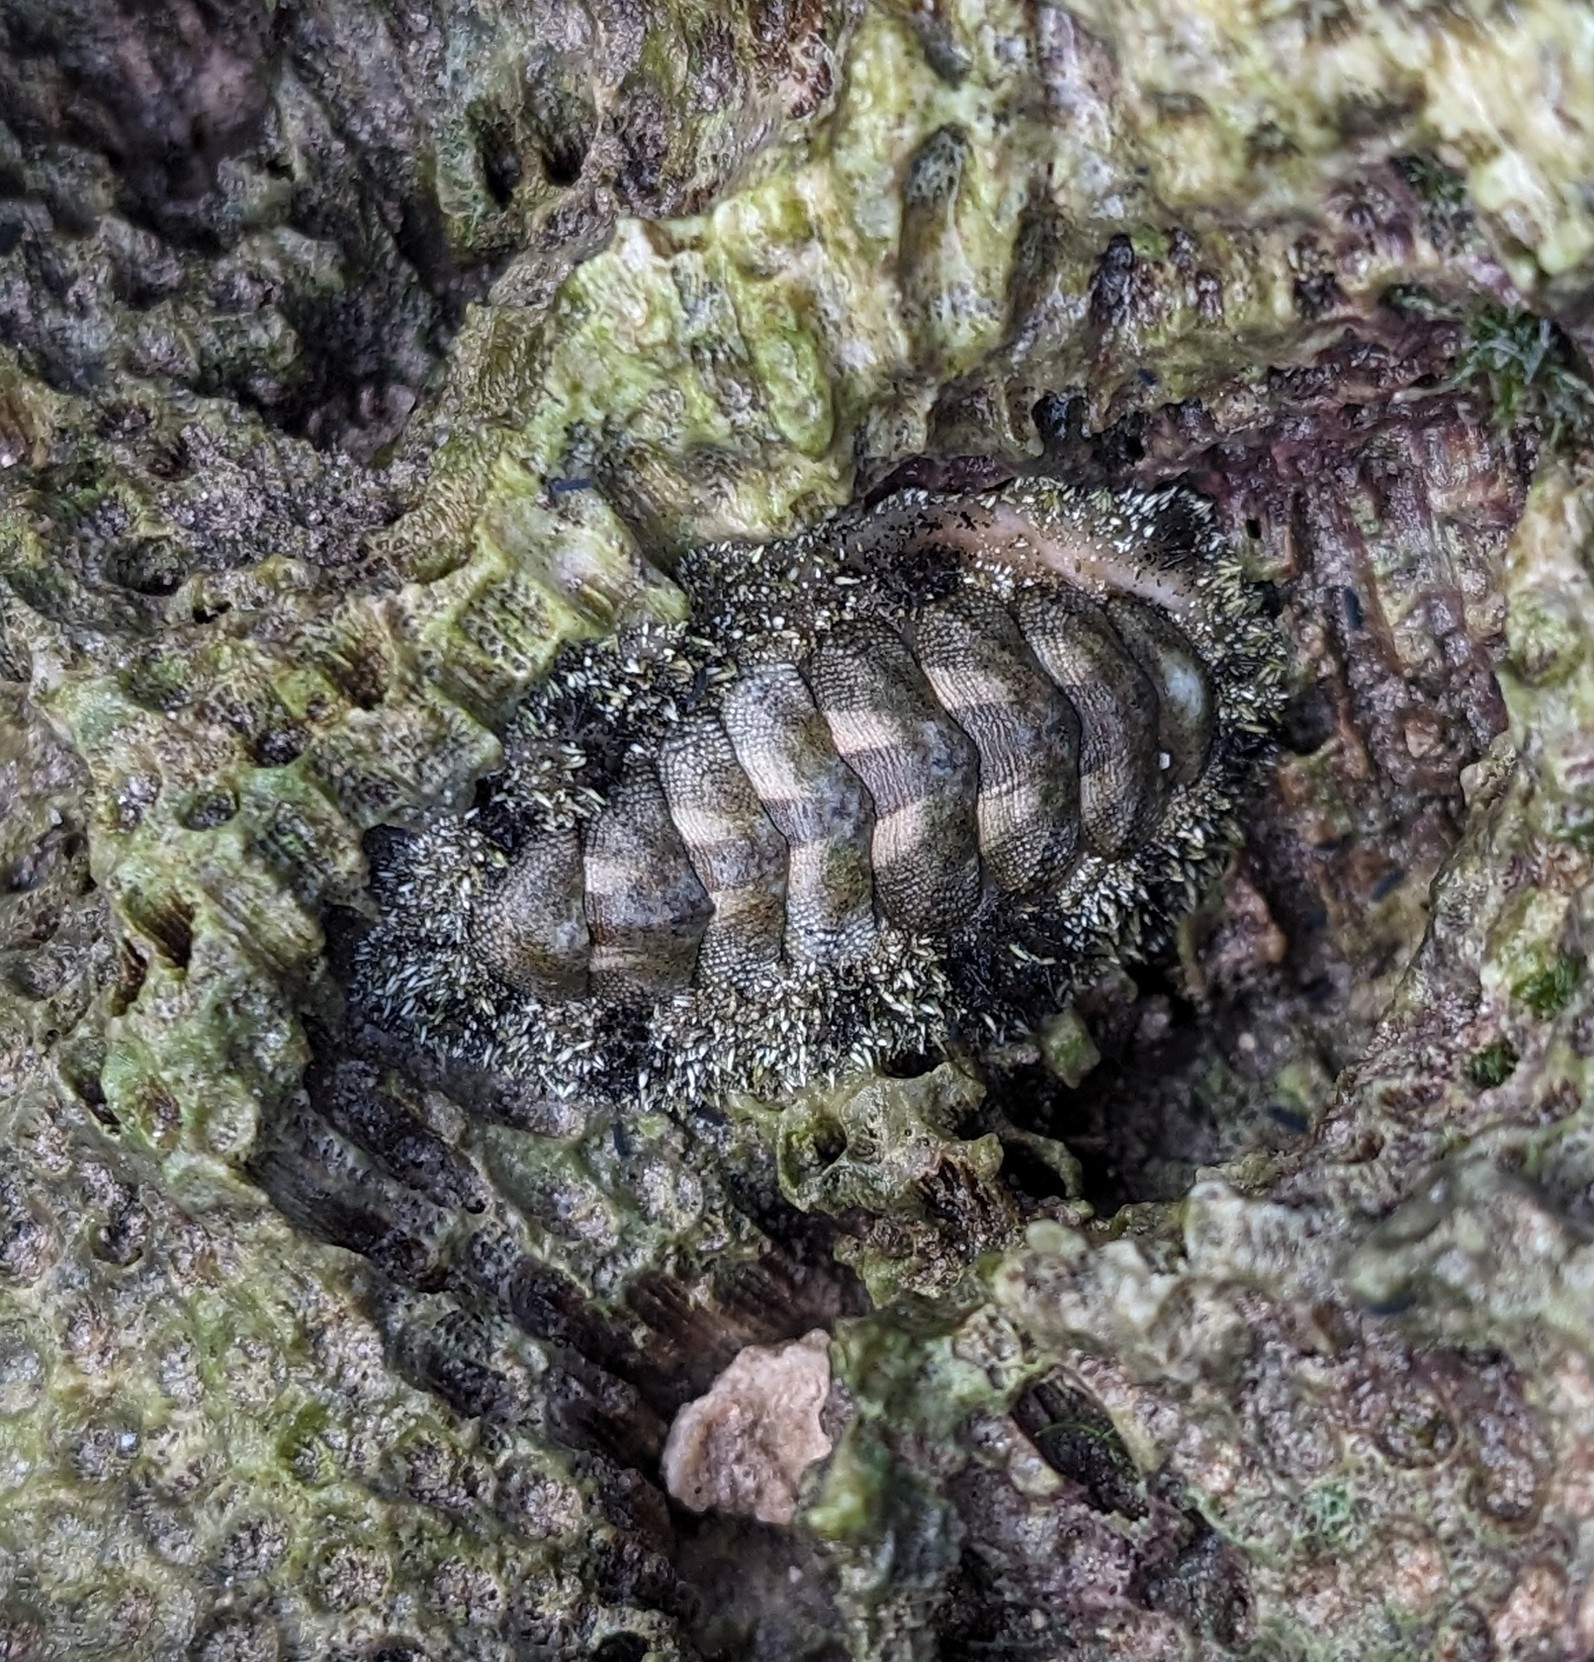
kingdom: Animalia
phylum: Mollusca
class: Polyplacophora
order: Chitonida
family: Chitonidae
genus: Acanthopleura
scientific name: Acanthopleura granulata
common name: West indian fuzzy chiton
